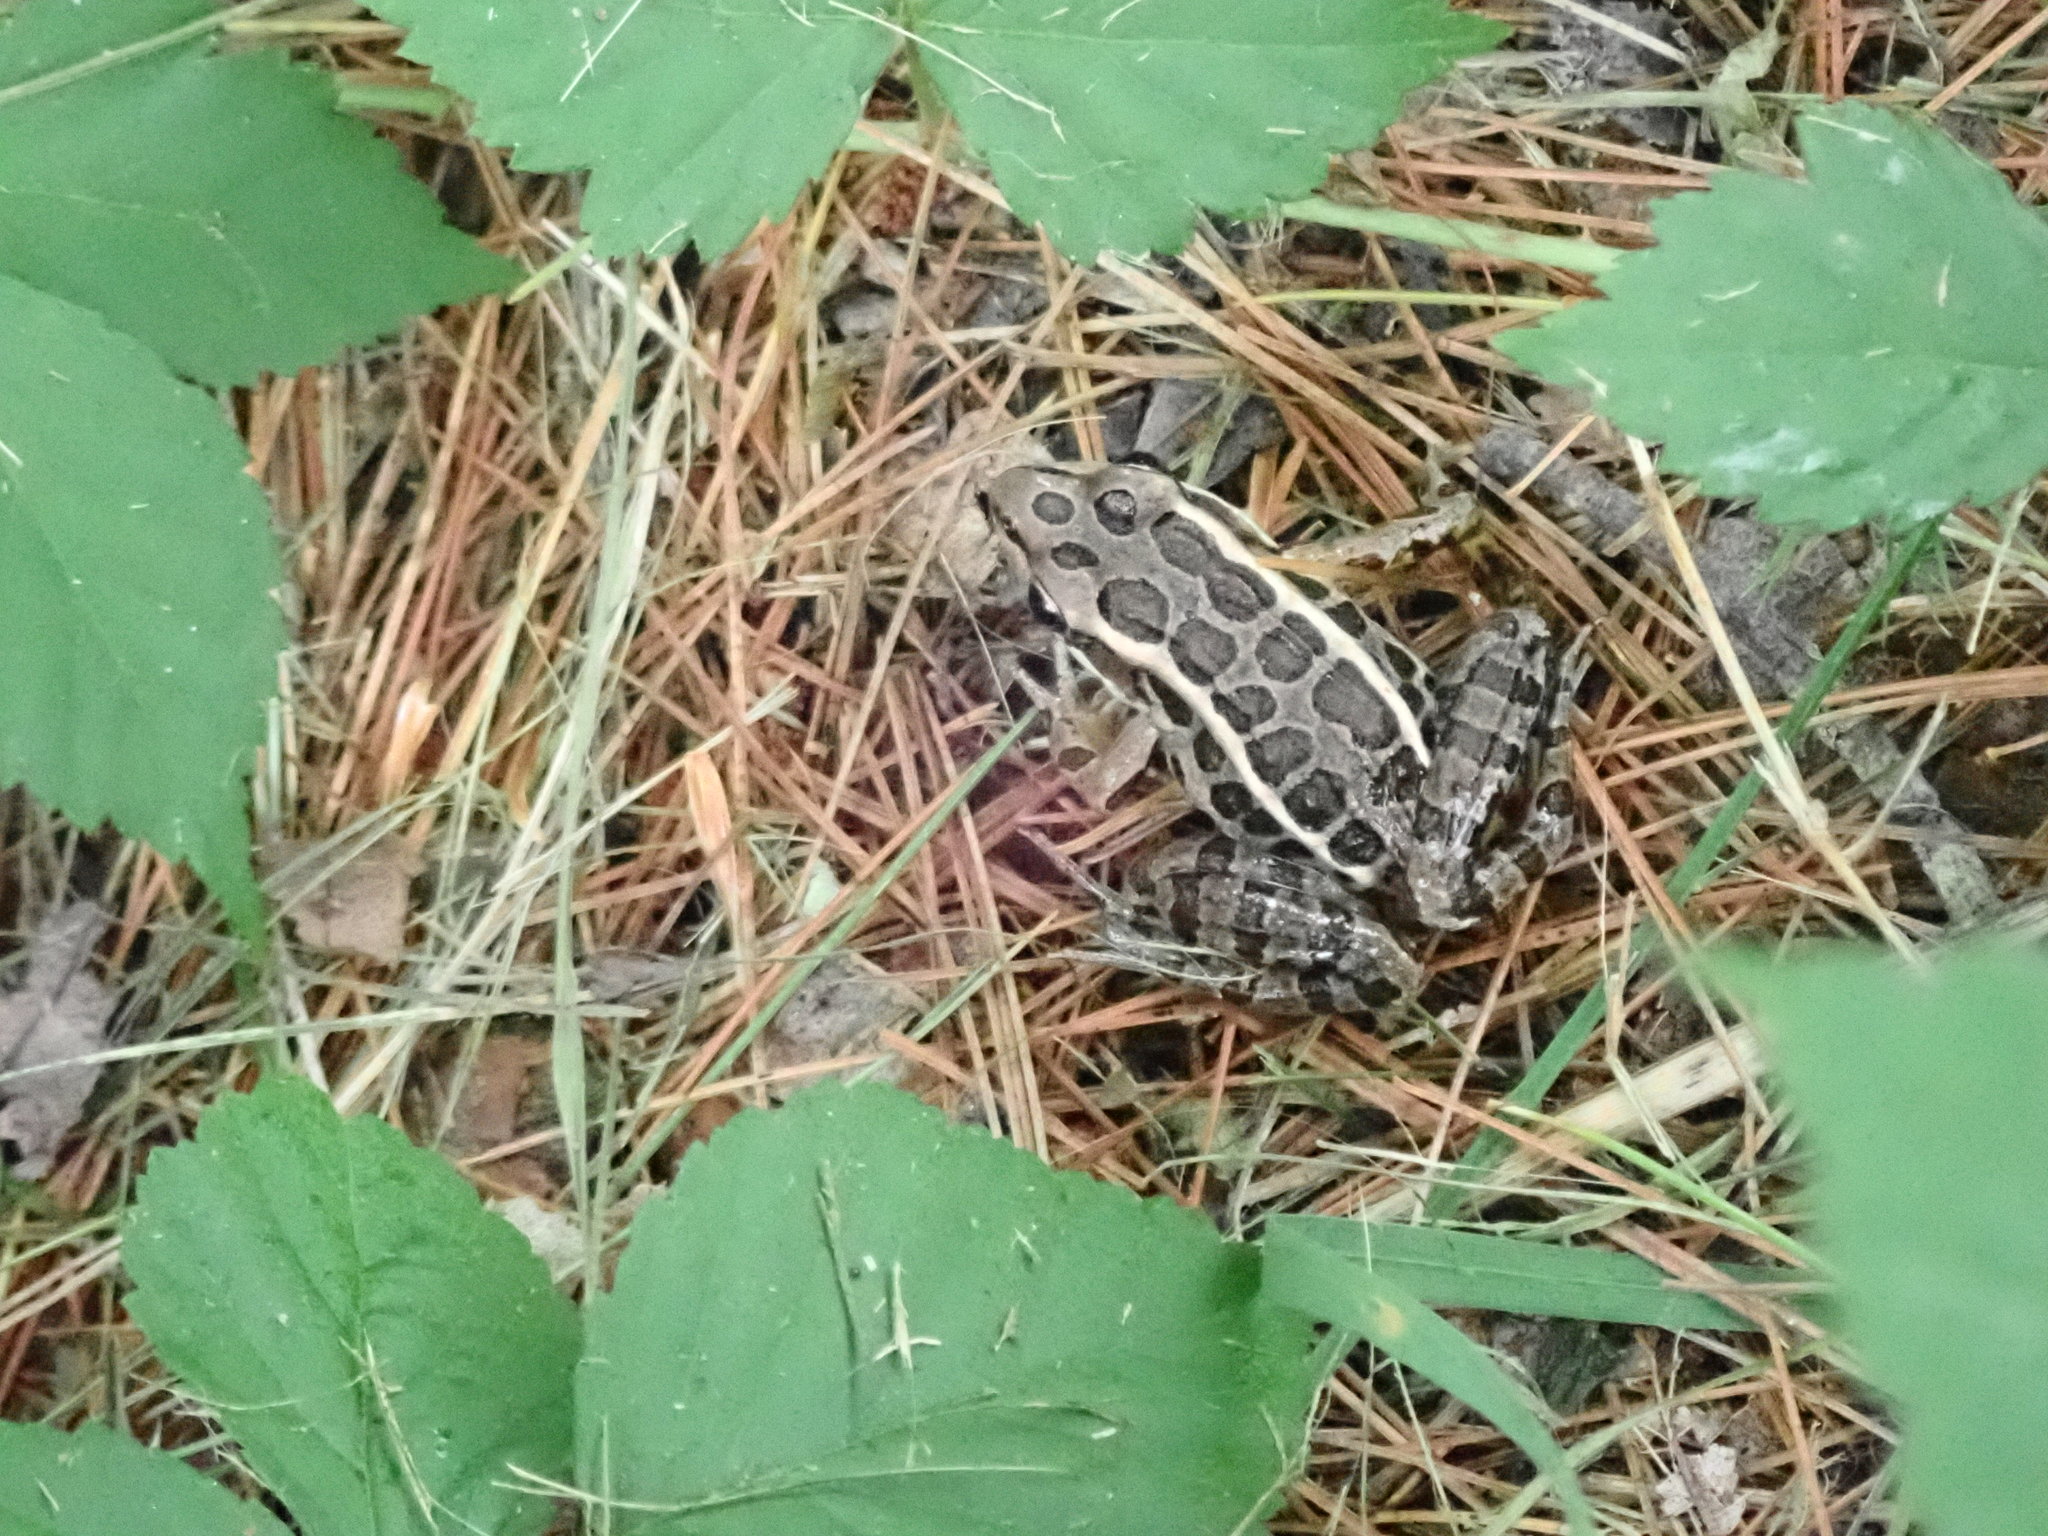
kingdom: Animalia
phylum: Chordata
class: Amphibia
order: Anura
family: Ranidae
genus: Lithobates
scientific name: Lithobates palustris
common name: Pickerel frog
